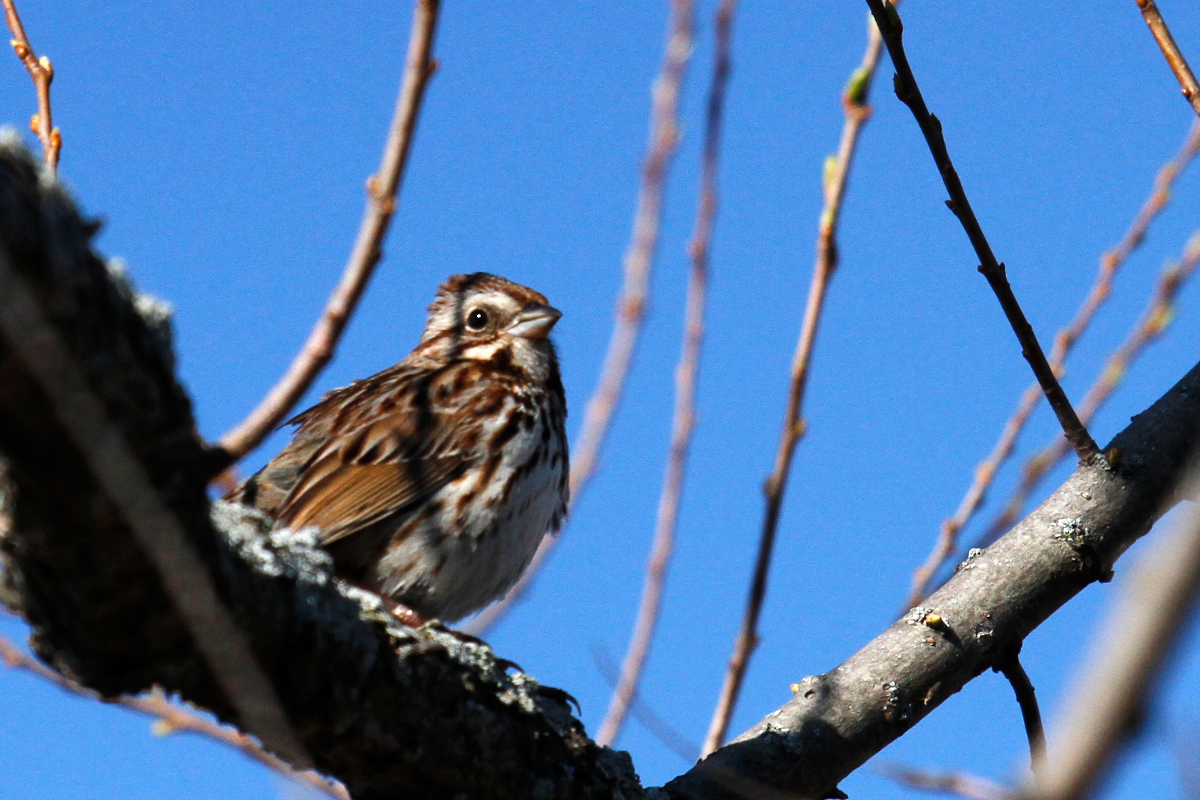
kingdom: Animalia
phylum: Chordata
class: Aves
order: Passeriformes
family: Passerellidae
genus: Melospiza
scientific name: Melospiza melodia
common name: Song sparrow
